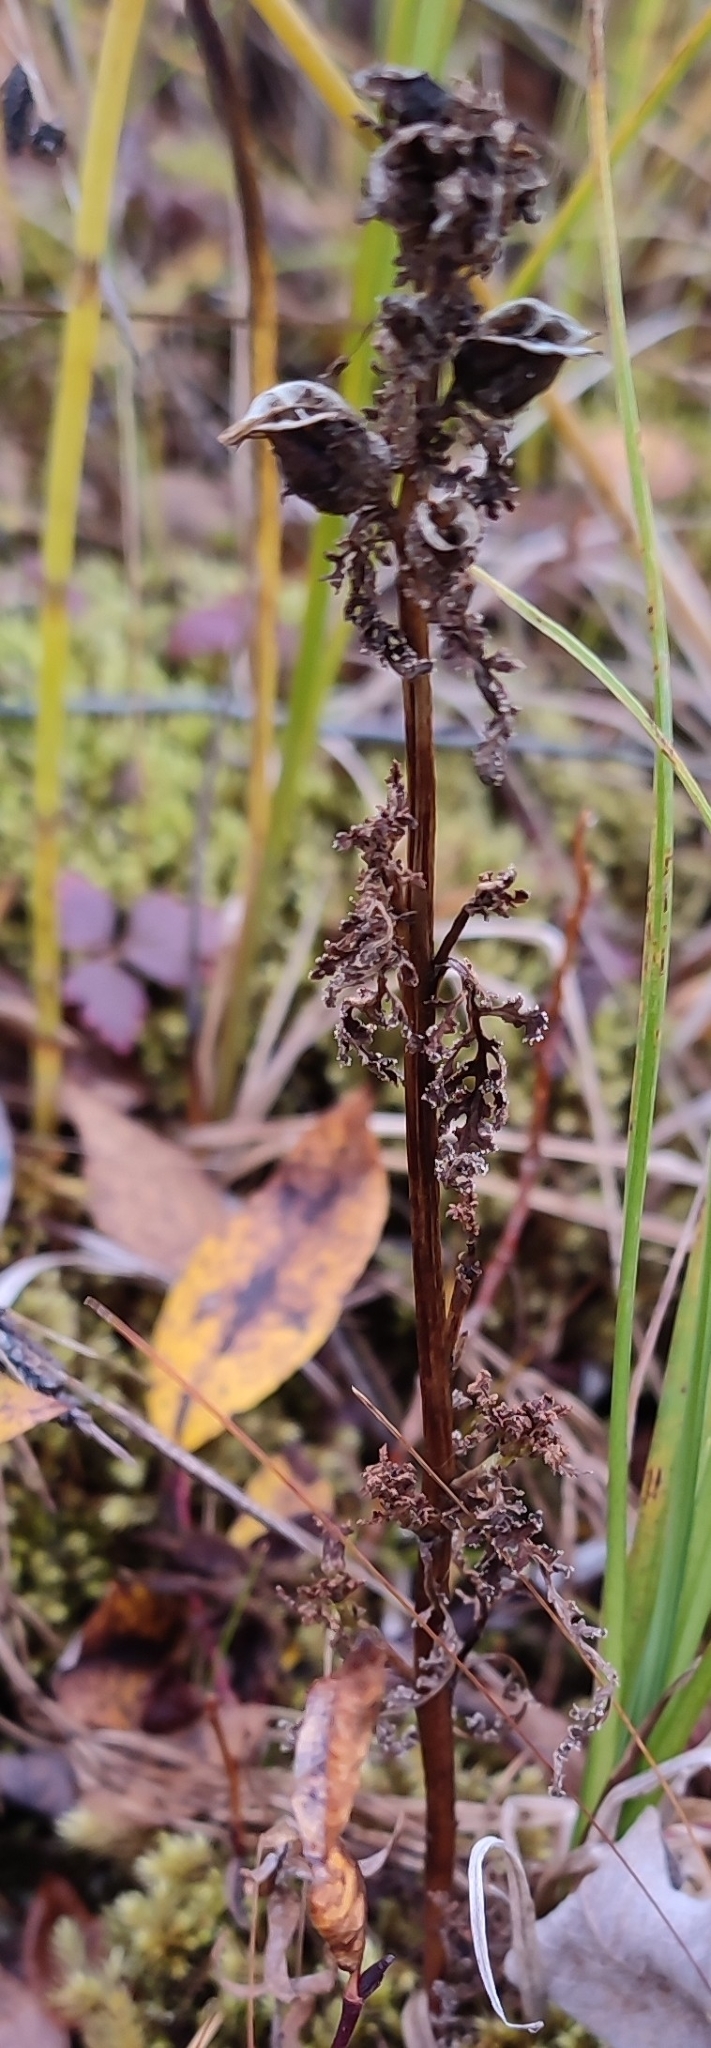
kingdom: Plantae
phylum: Tracheophyta
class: Magnoliopsida
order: Lamiales
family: Orobanchaceae
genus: Pedicularis
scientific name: Pedicularis palustris
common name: Marsh lousewort
